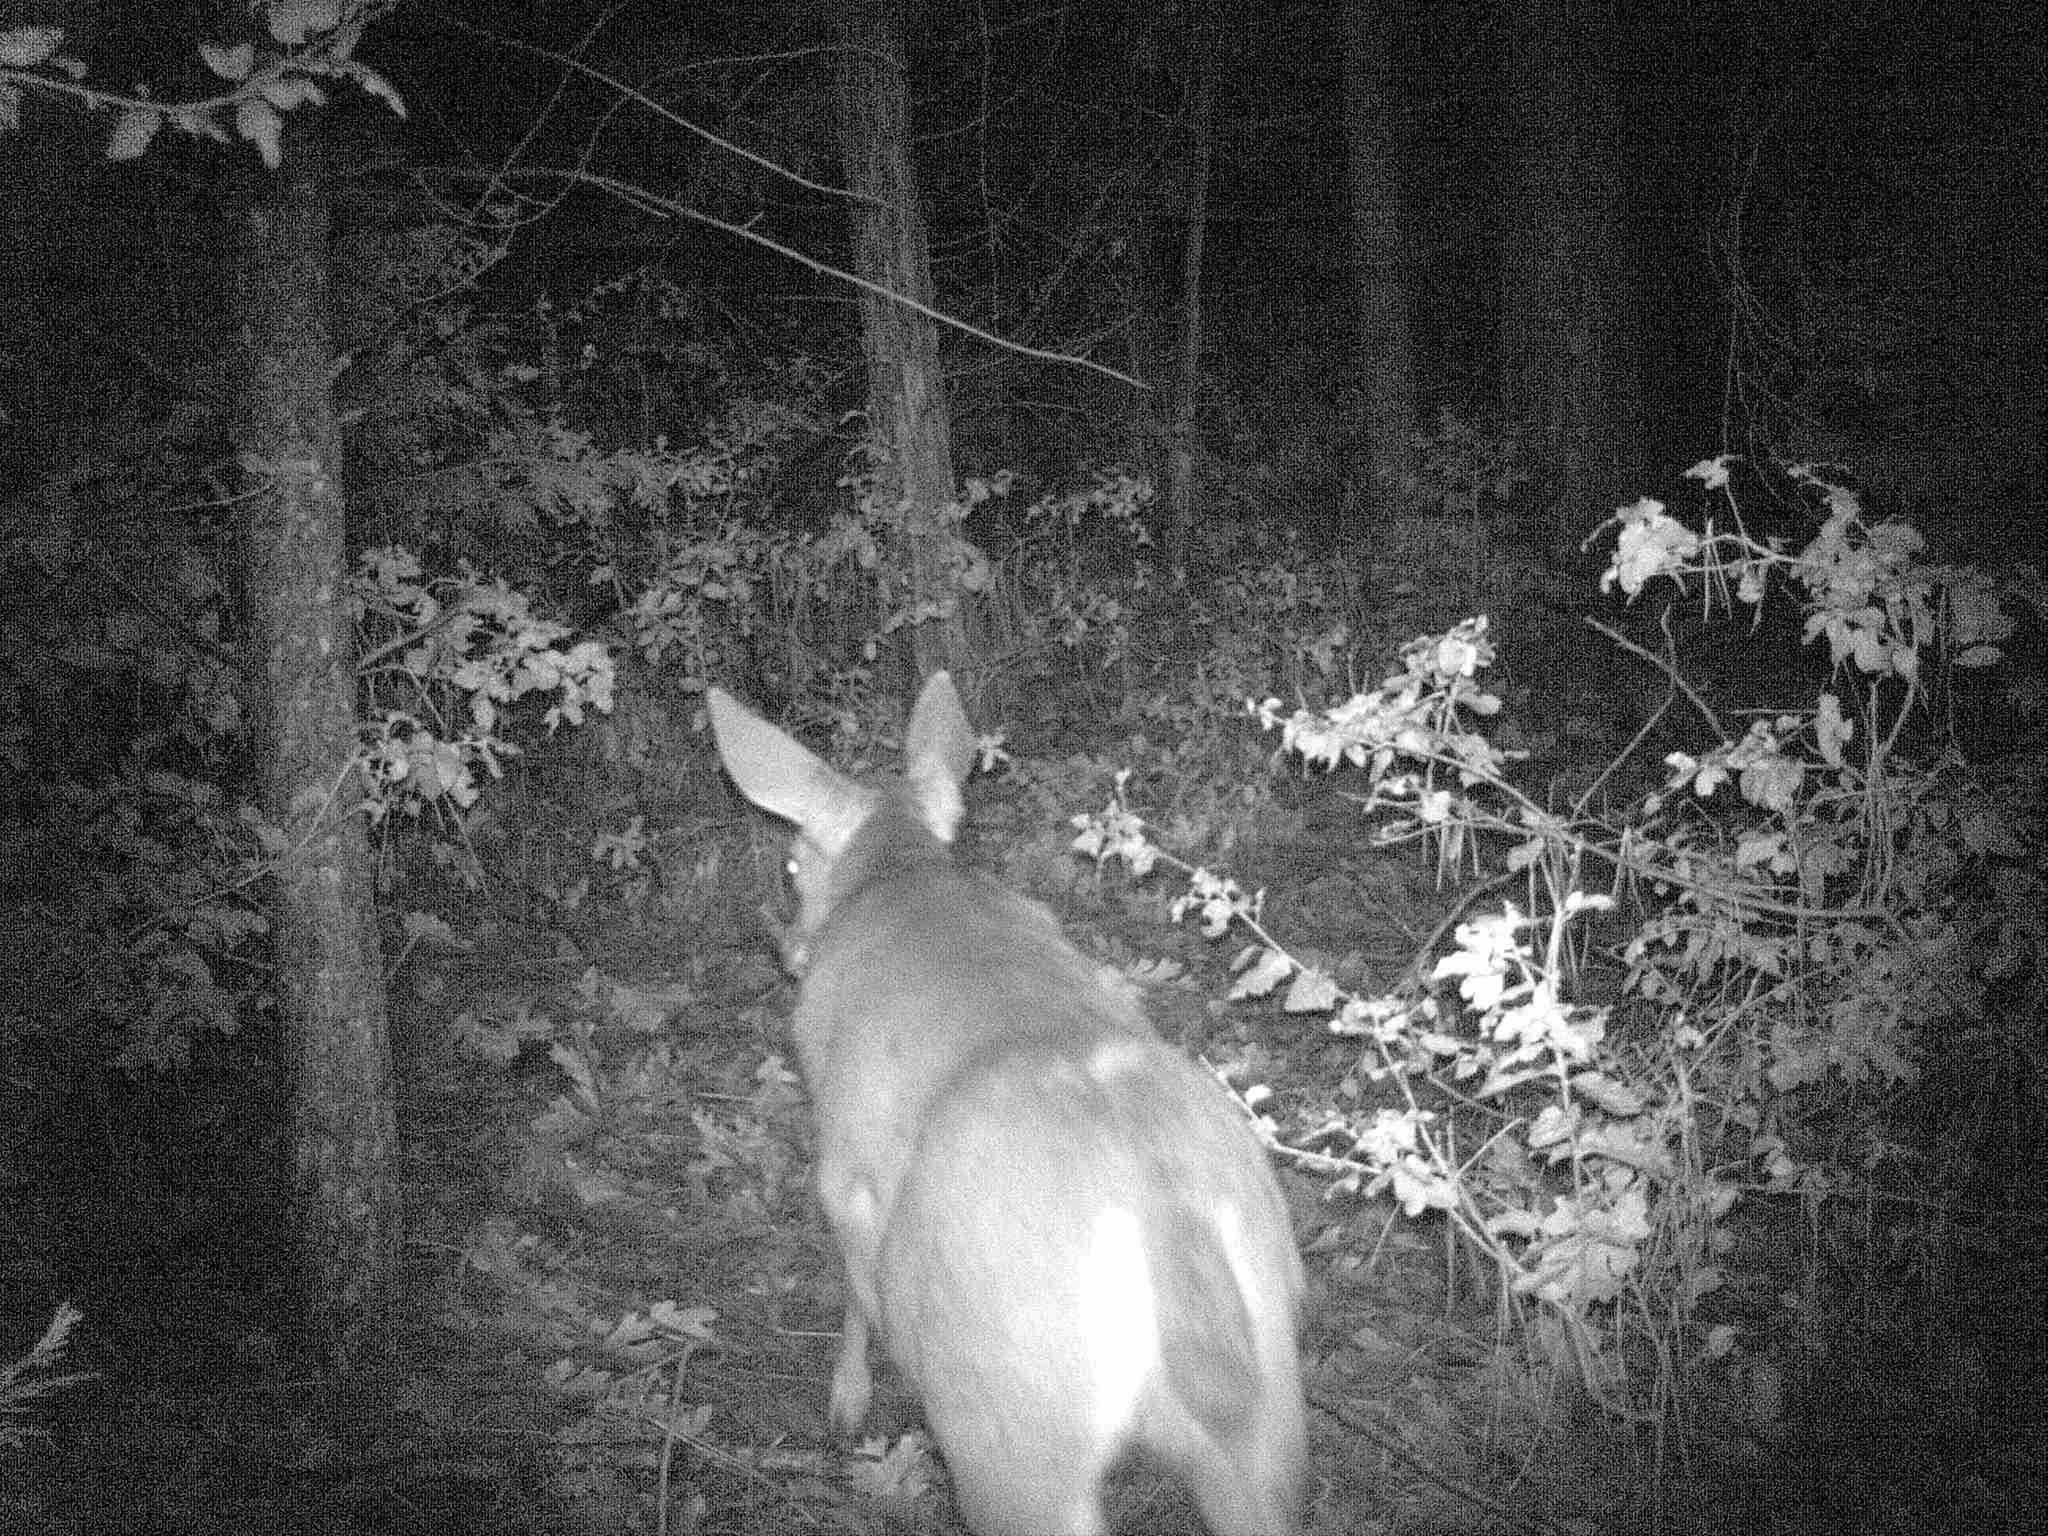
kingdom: Animalia
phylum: Chordata
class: Mammalia
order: Artiodactyla
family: Cervidae
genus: Odocoileus
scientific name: Odocoileus hemionus
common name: Mule deer
